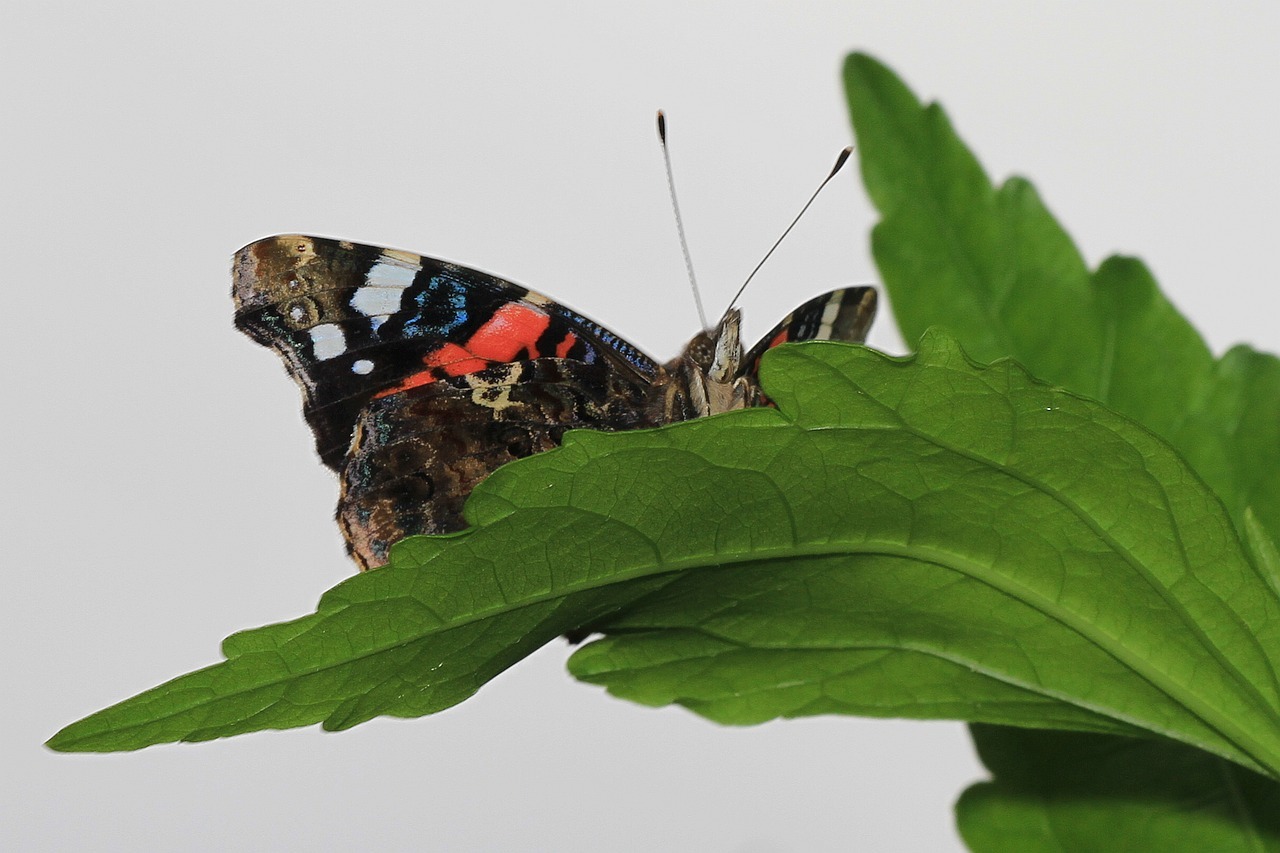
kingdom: Animalia
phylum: Arthropoda
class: Insecta
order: Lepidoptera
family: Nymphalidae
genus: Vanessa
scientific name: Vanessa atalanta
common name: Red admiral
